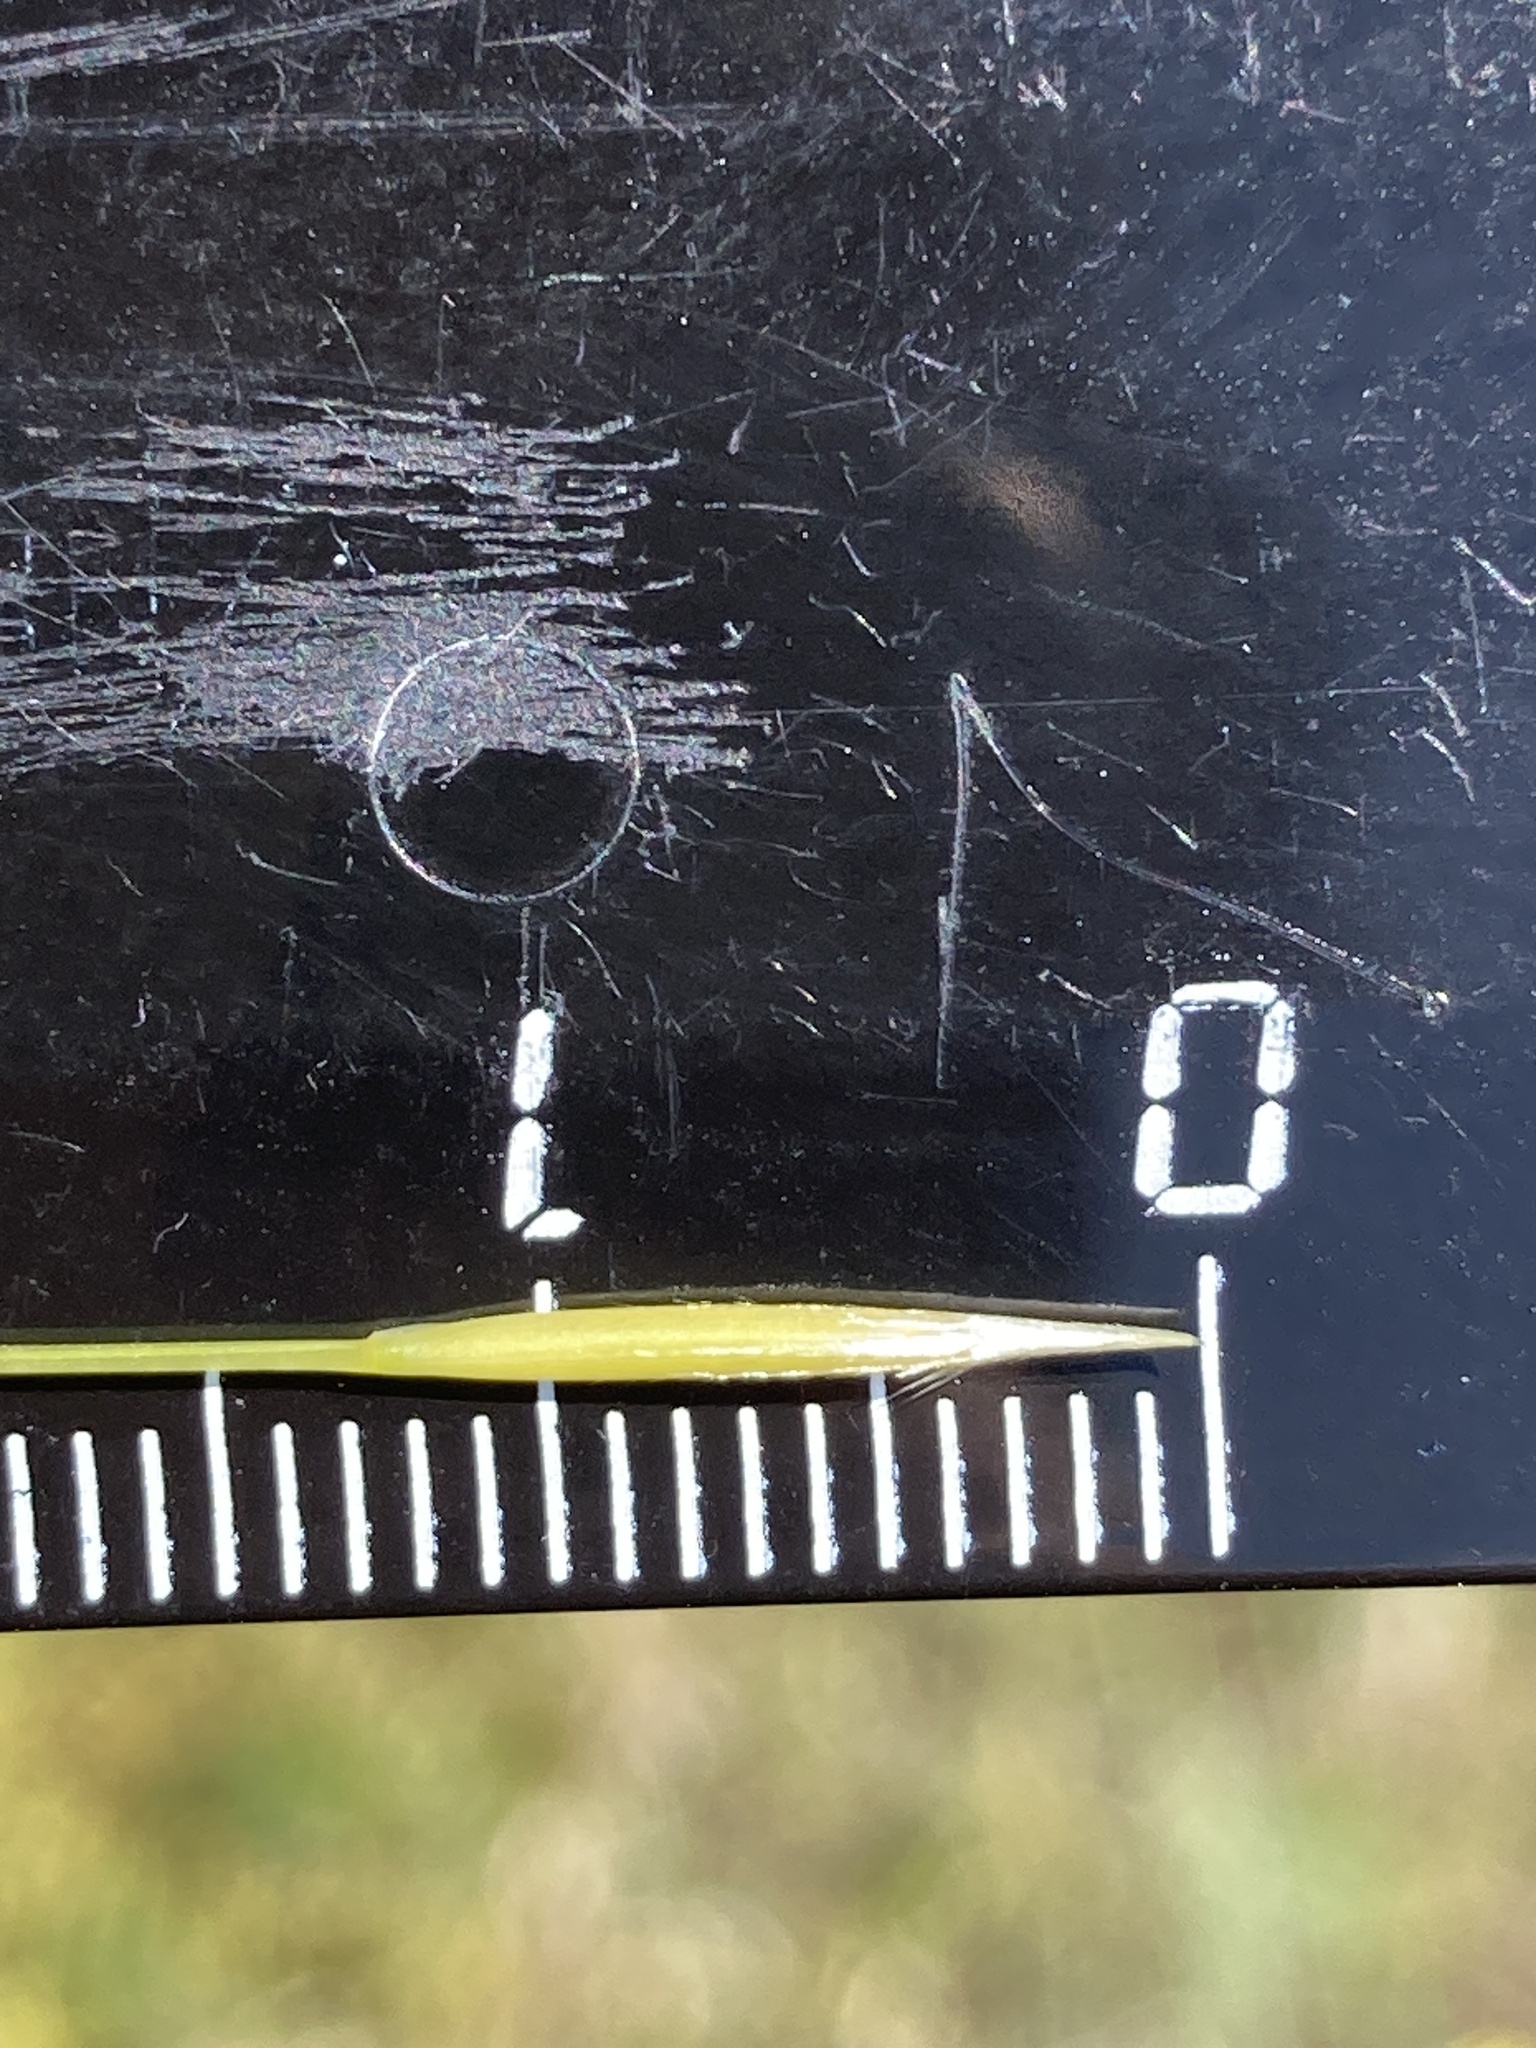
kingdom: Plantae
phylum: Tracheophyta
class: Liliopsida
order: Poales
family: Poaceae
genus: Stipa
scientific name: Stipa capillata
